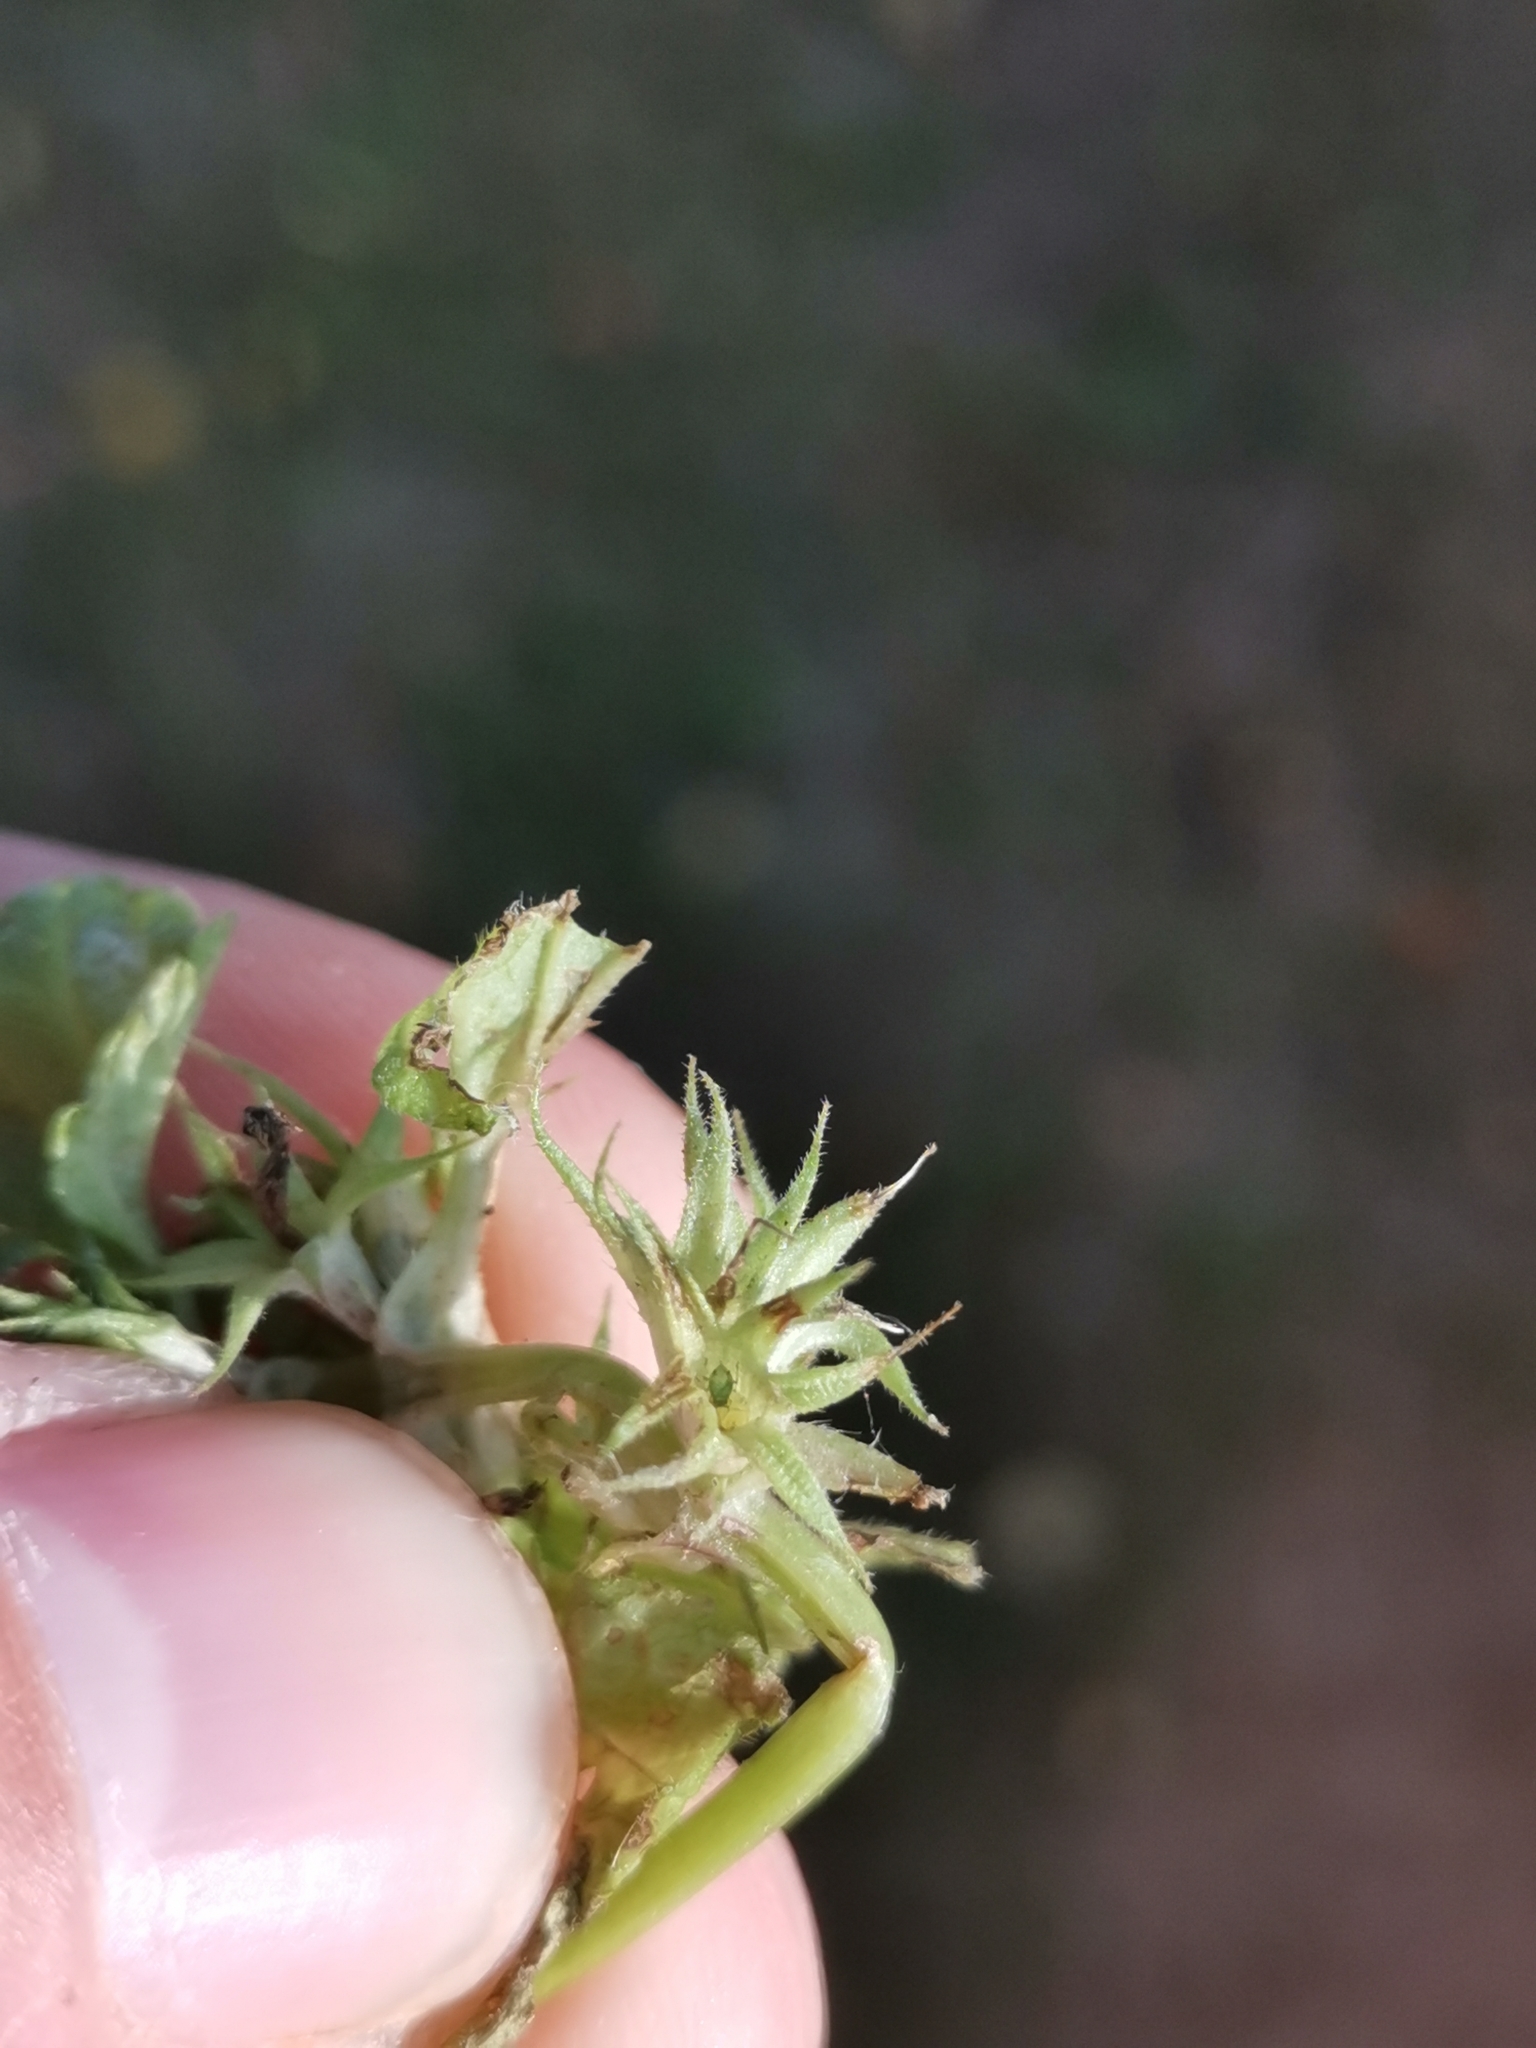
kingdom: Plantae
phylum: Tracheophyta
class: Magnoliopsida
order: Lamiales
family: Lamiaceae
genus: Lamium
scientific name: Lamium purpureum
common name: Red dead-nettle
